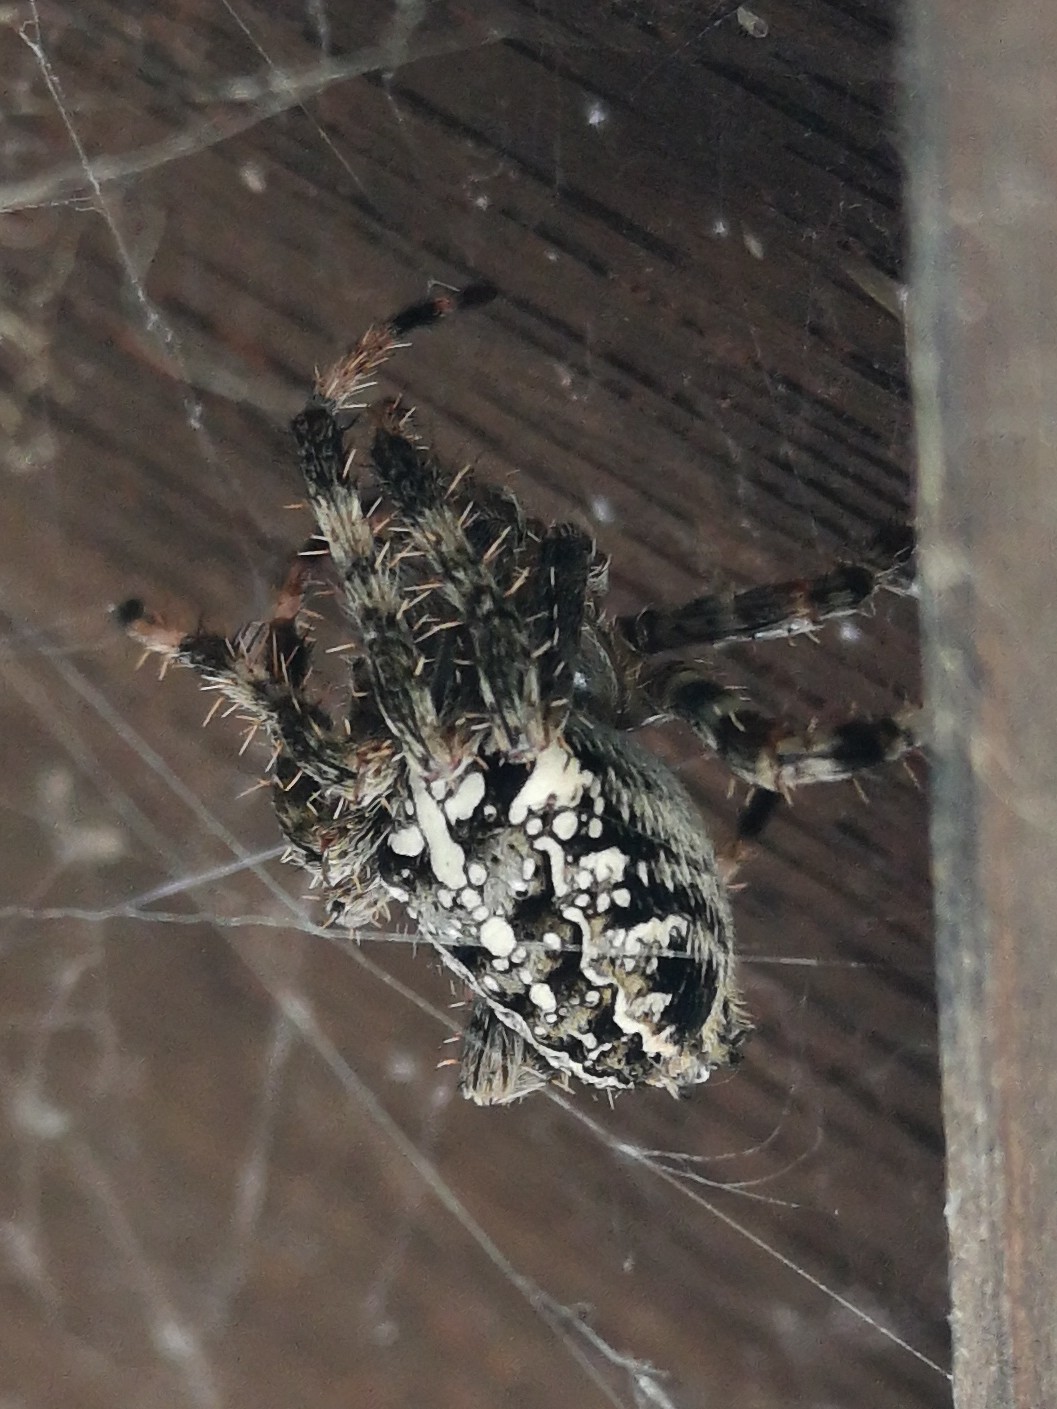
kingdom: Animalia
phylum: Arthropoda
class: Arachnida
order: Araneae
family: Araneidae
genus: Araneus
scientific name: Araneus diadematus
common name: Cross orbweaver
